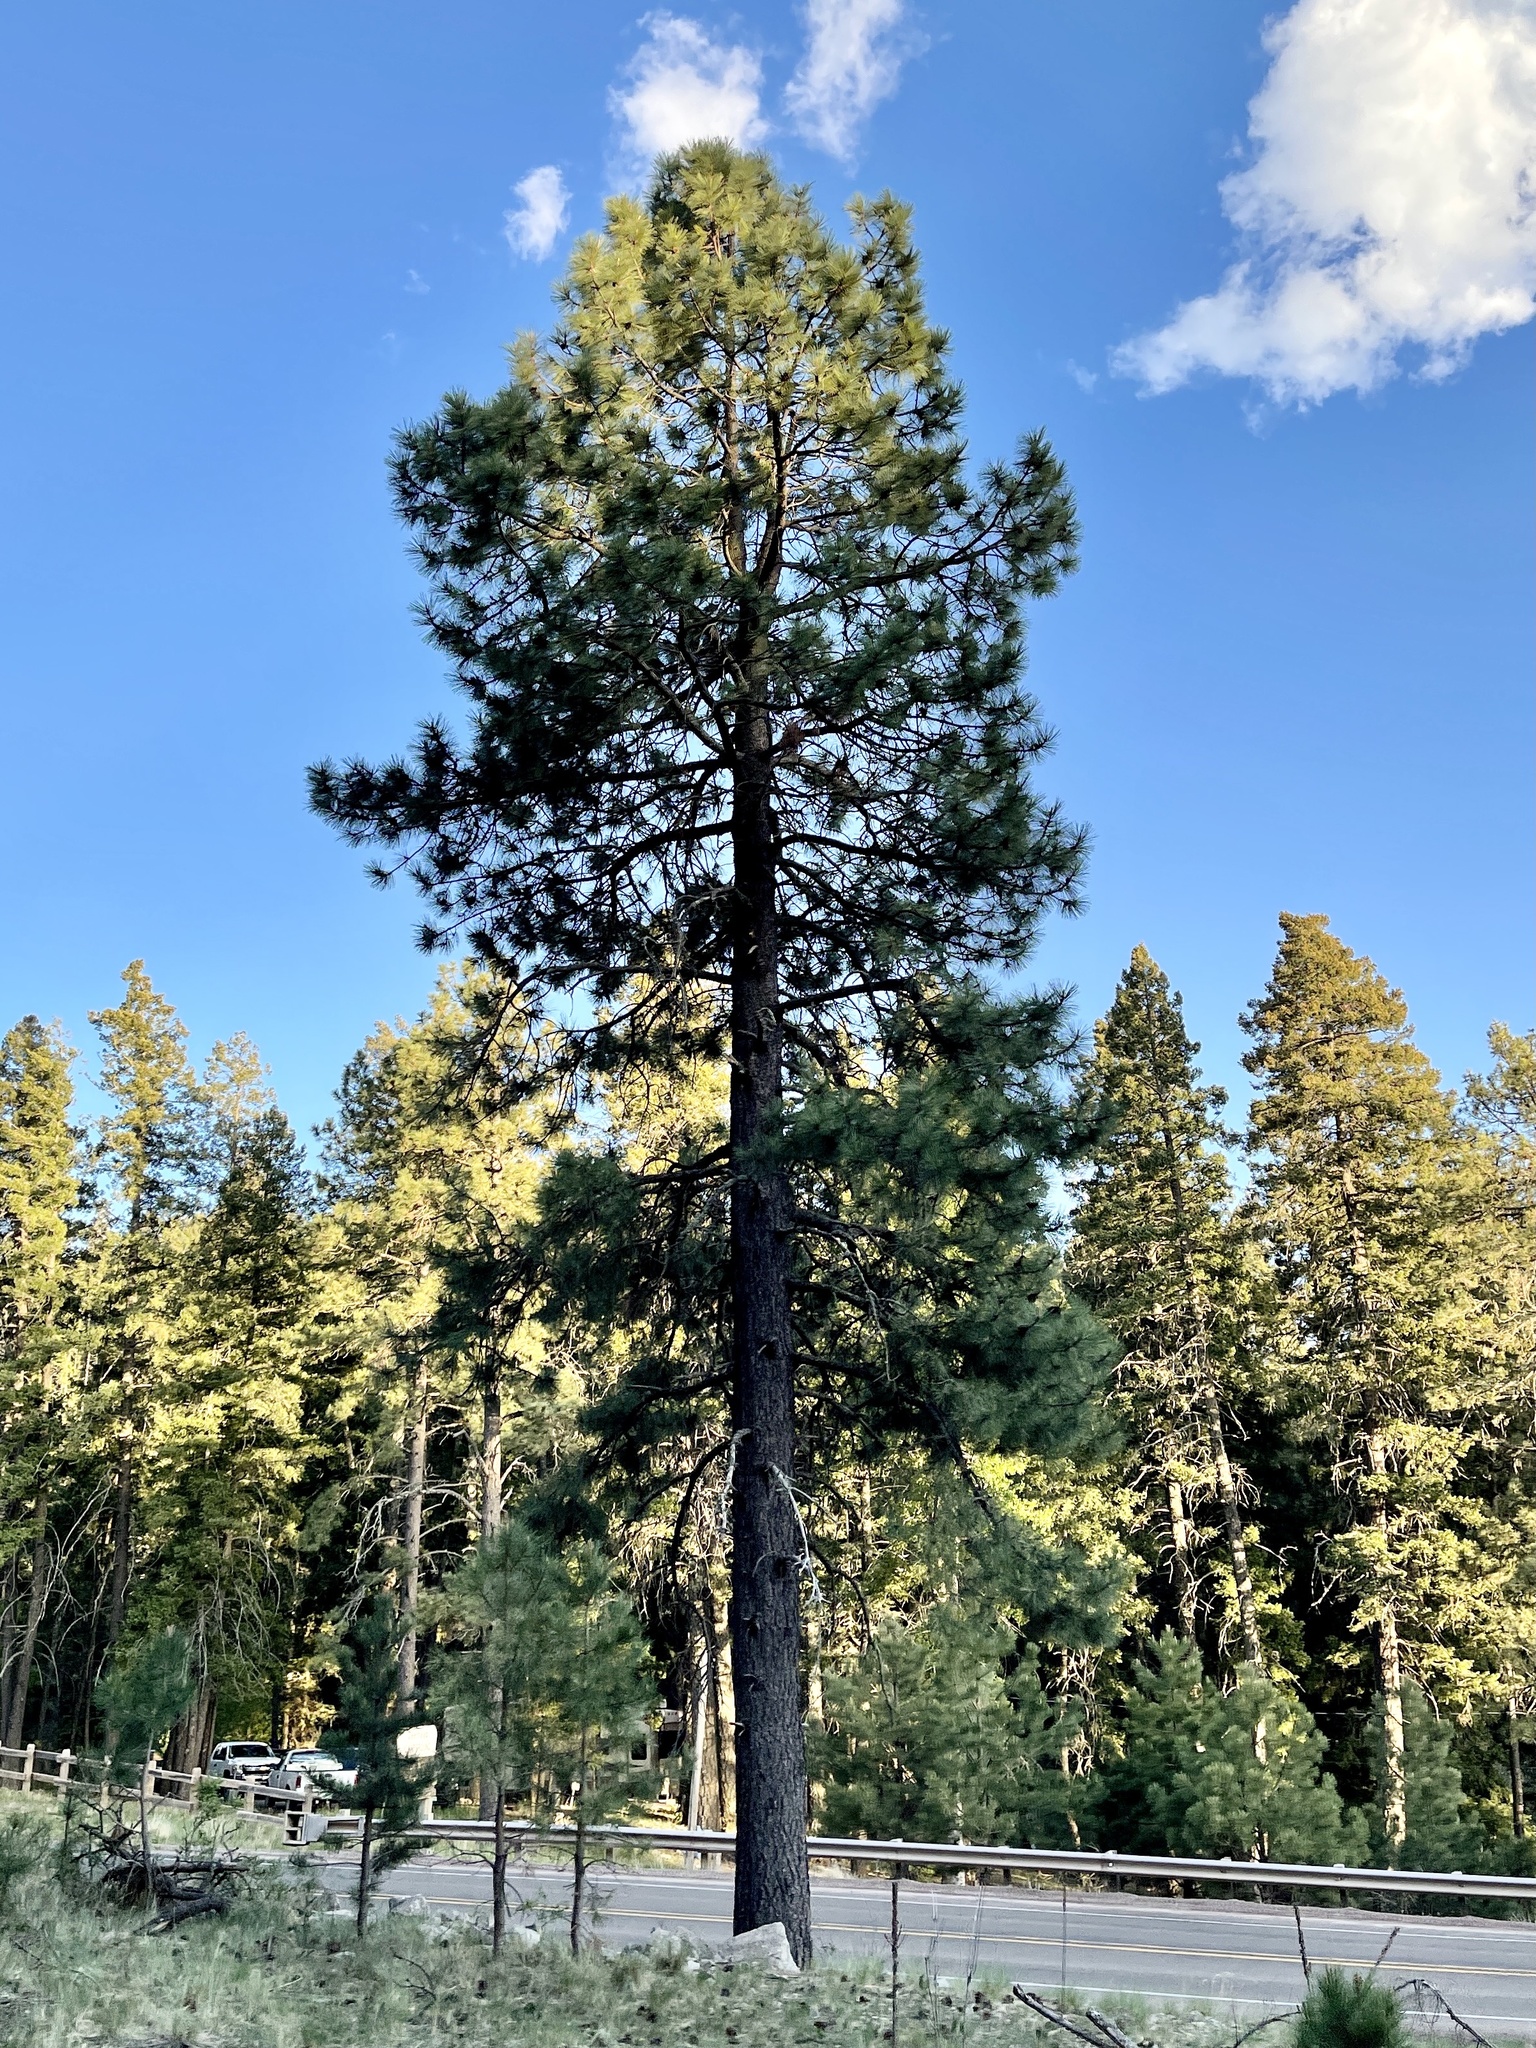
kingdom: Plantae
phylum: Tracheophyta
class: Pinopsida
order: Pinales
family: Pinaceae
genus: Pinus
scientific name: Pinus ponderosa
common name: Western yellow-pine
